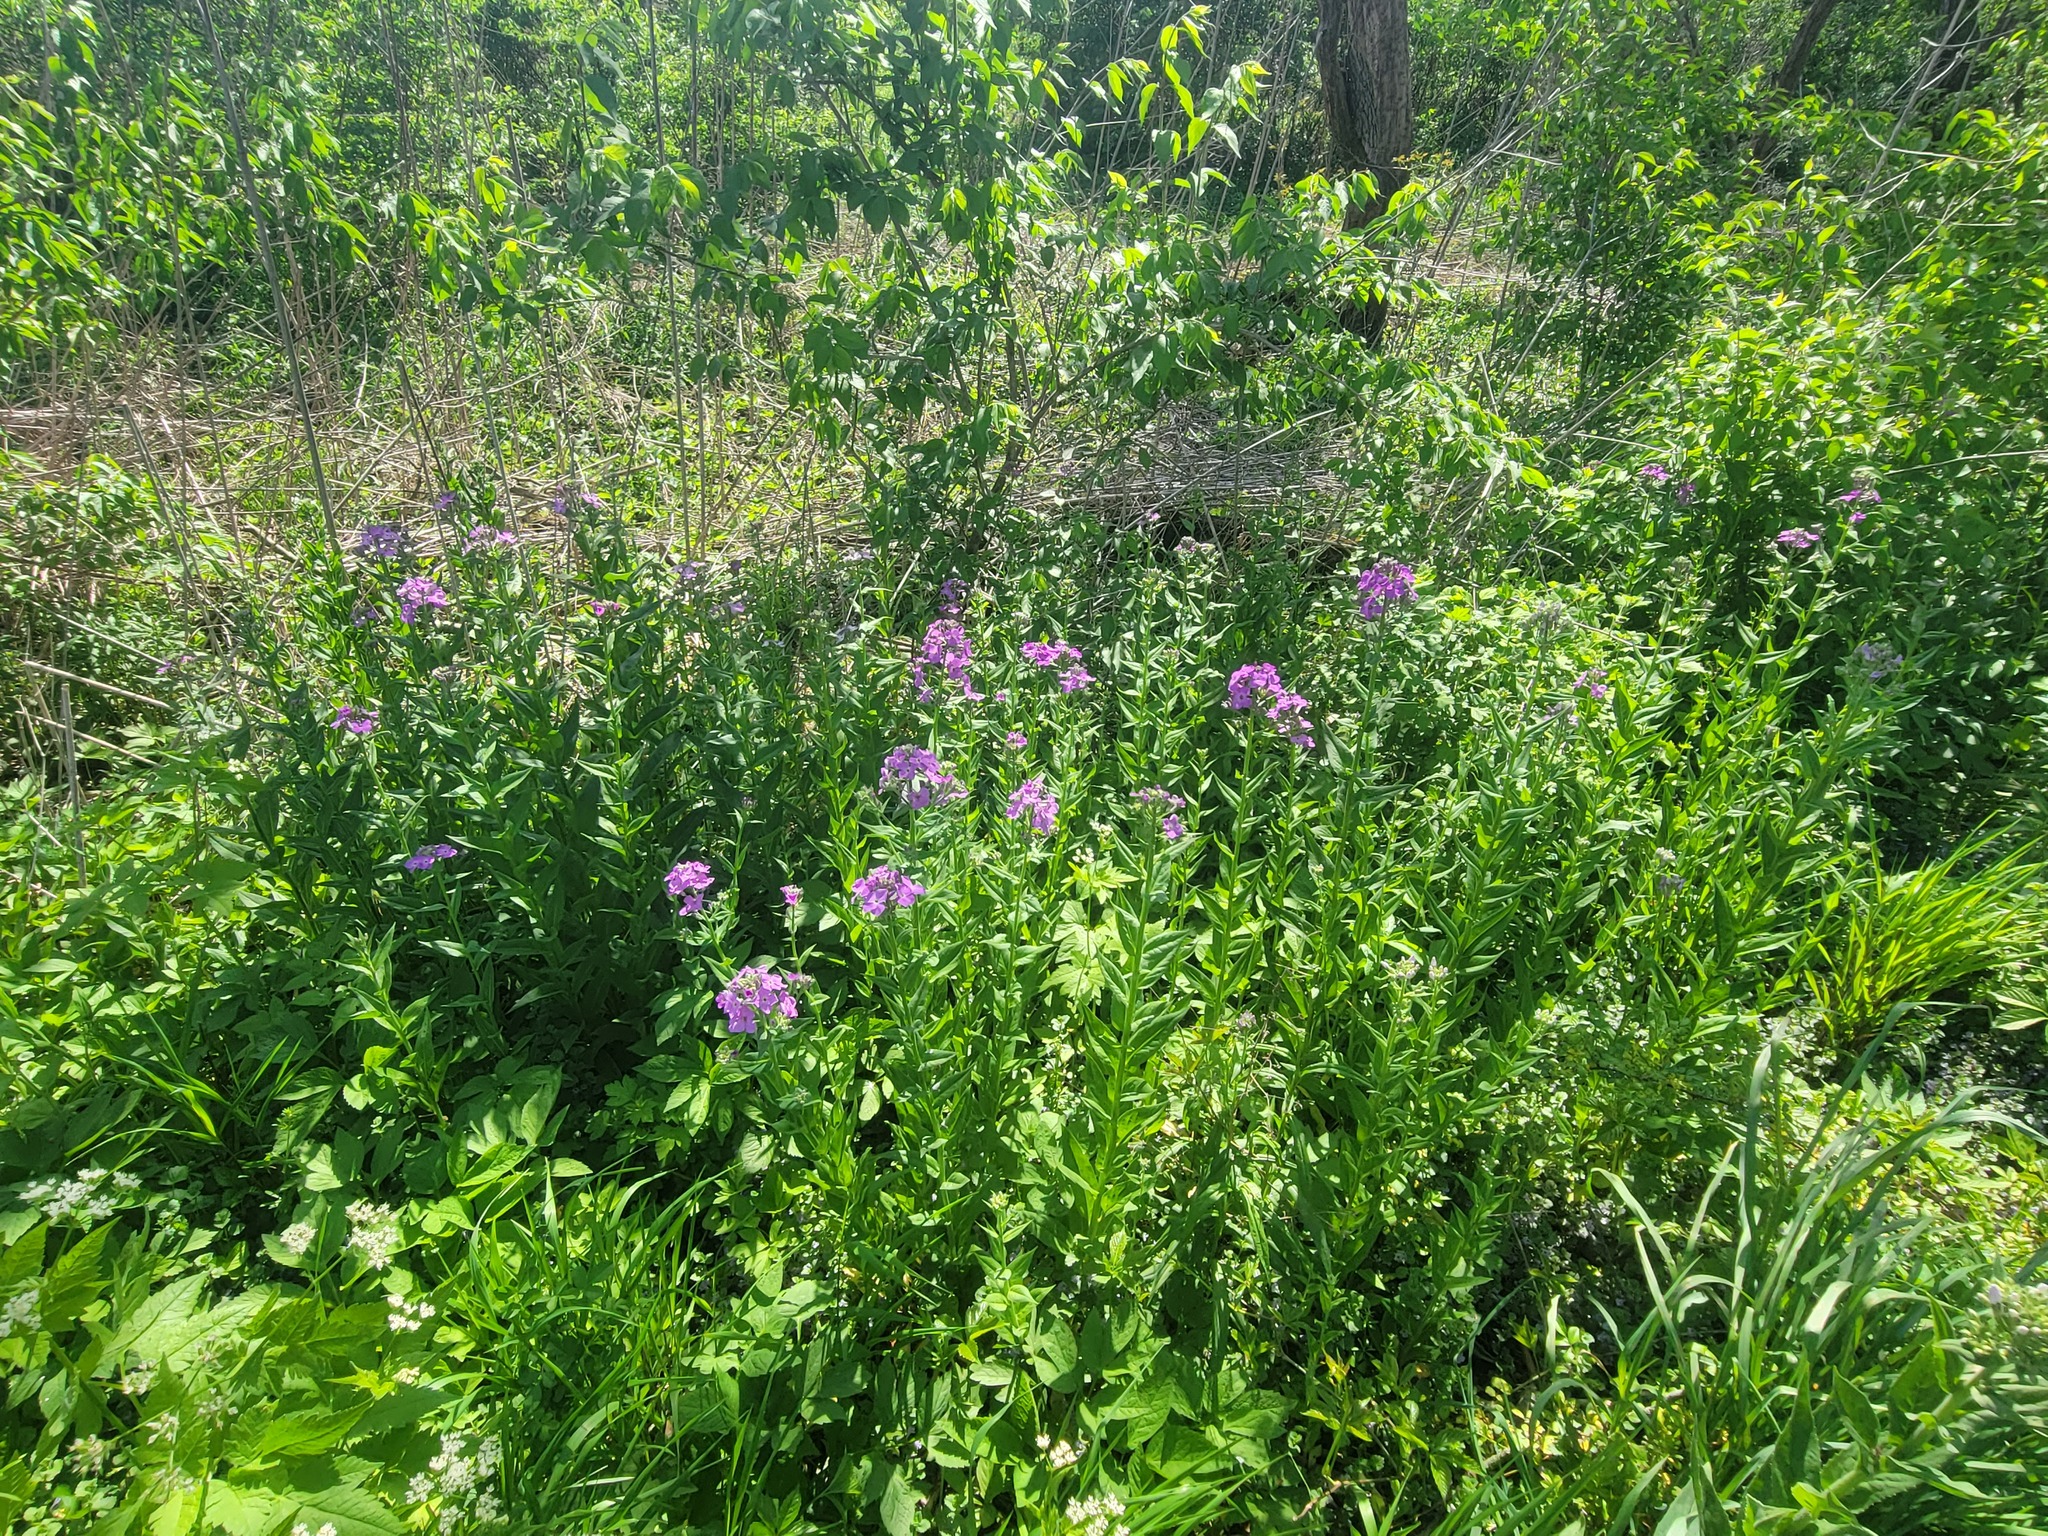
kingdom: Plantae
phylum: Tracheophyta
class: Magnoliopsida
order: Ericales
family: Polemoniaceae
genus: Phlox
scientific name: Phlox paniculata
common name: Fall phlox
